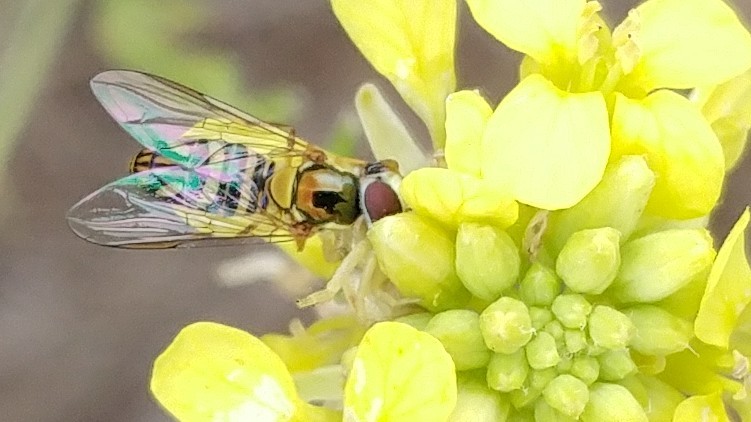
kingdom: Animalia
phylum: Arthropoda
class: Insecta
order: Diptera
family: Syrphidae
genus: Allograpta
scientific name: Allograpta obliqua
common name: Common oblique syrphid
